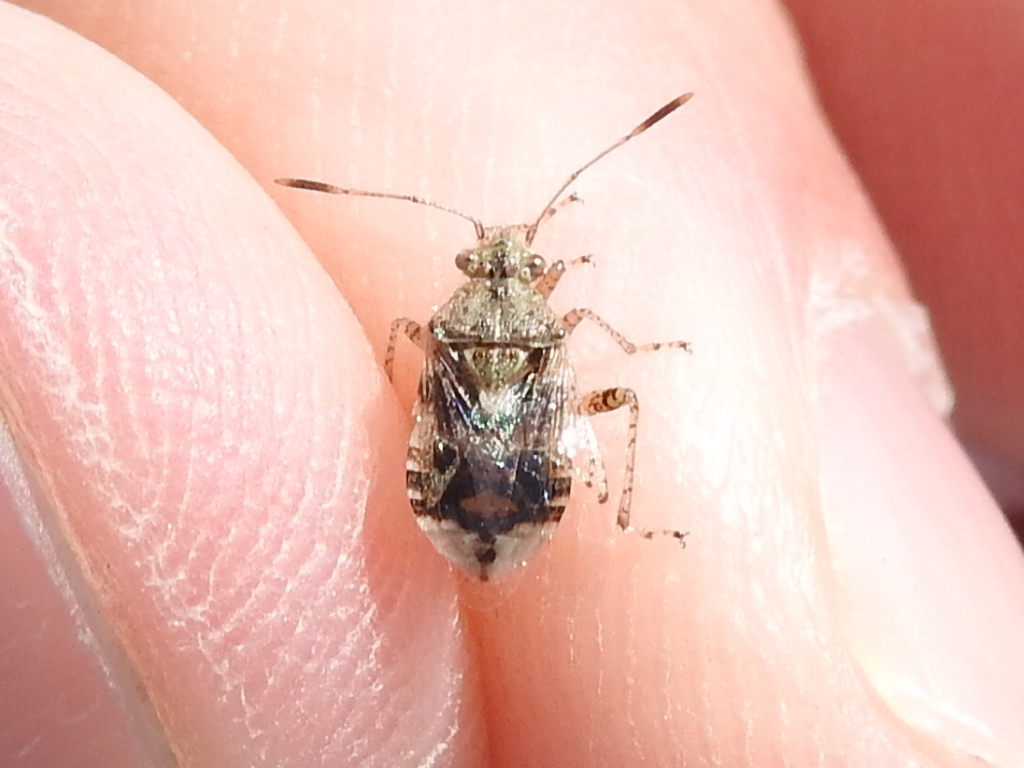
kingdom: Animalia
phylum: Arthropoda
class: Insecta
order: Hemiptera
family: Rhopalidae
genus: Niesthrea
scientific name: Niesthrea louisianica
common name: Scentless plant bug
